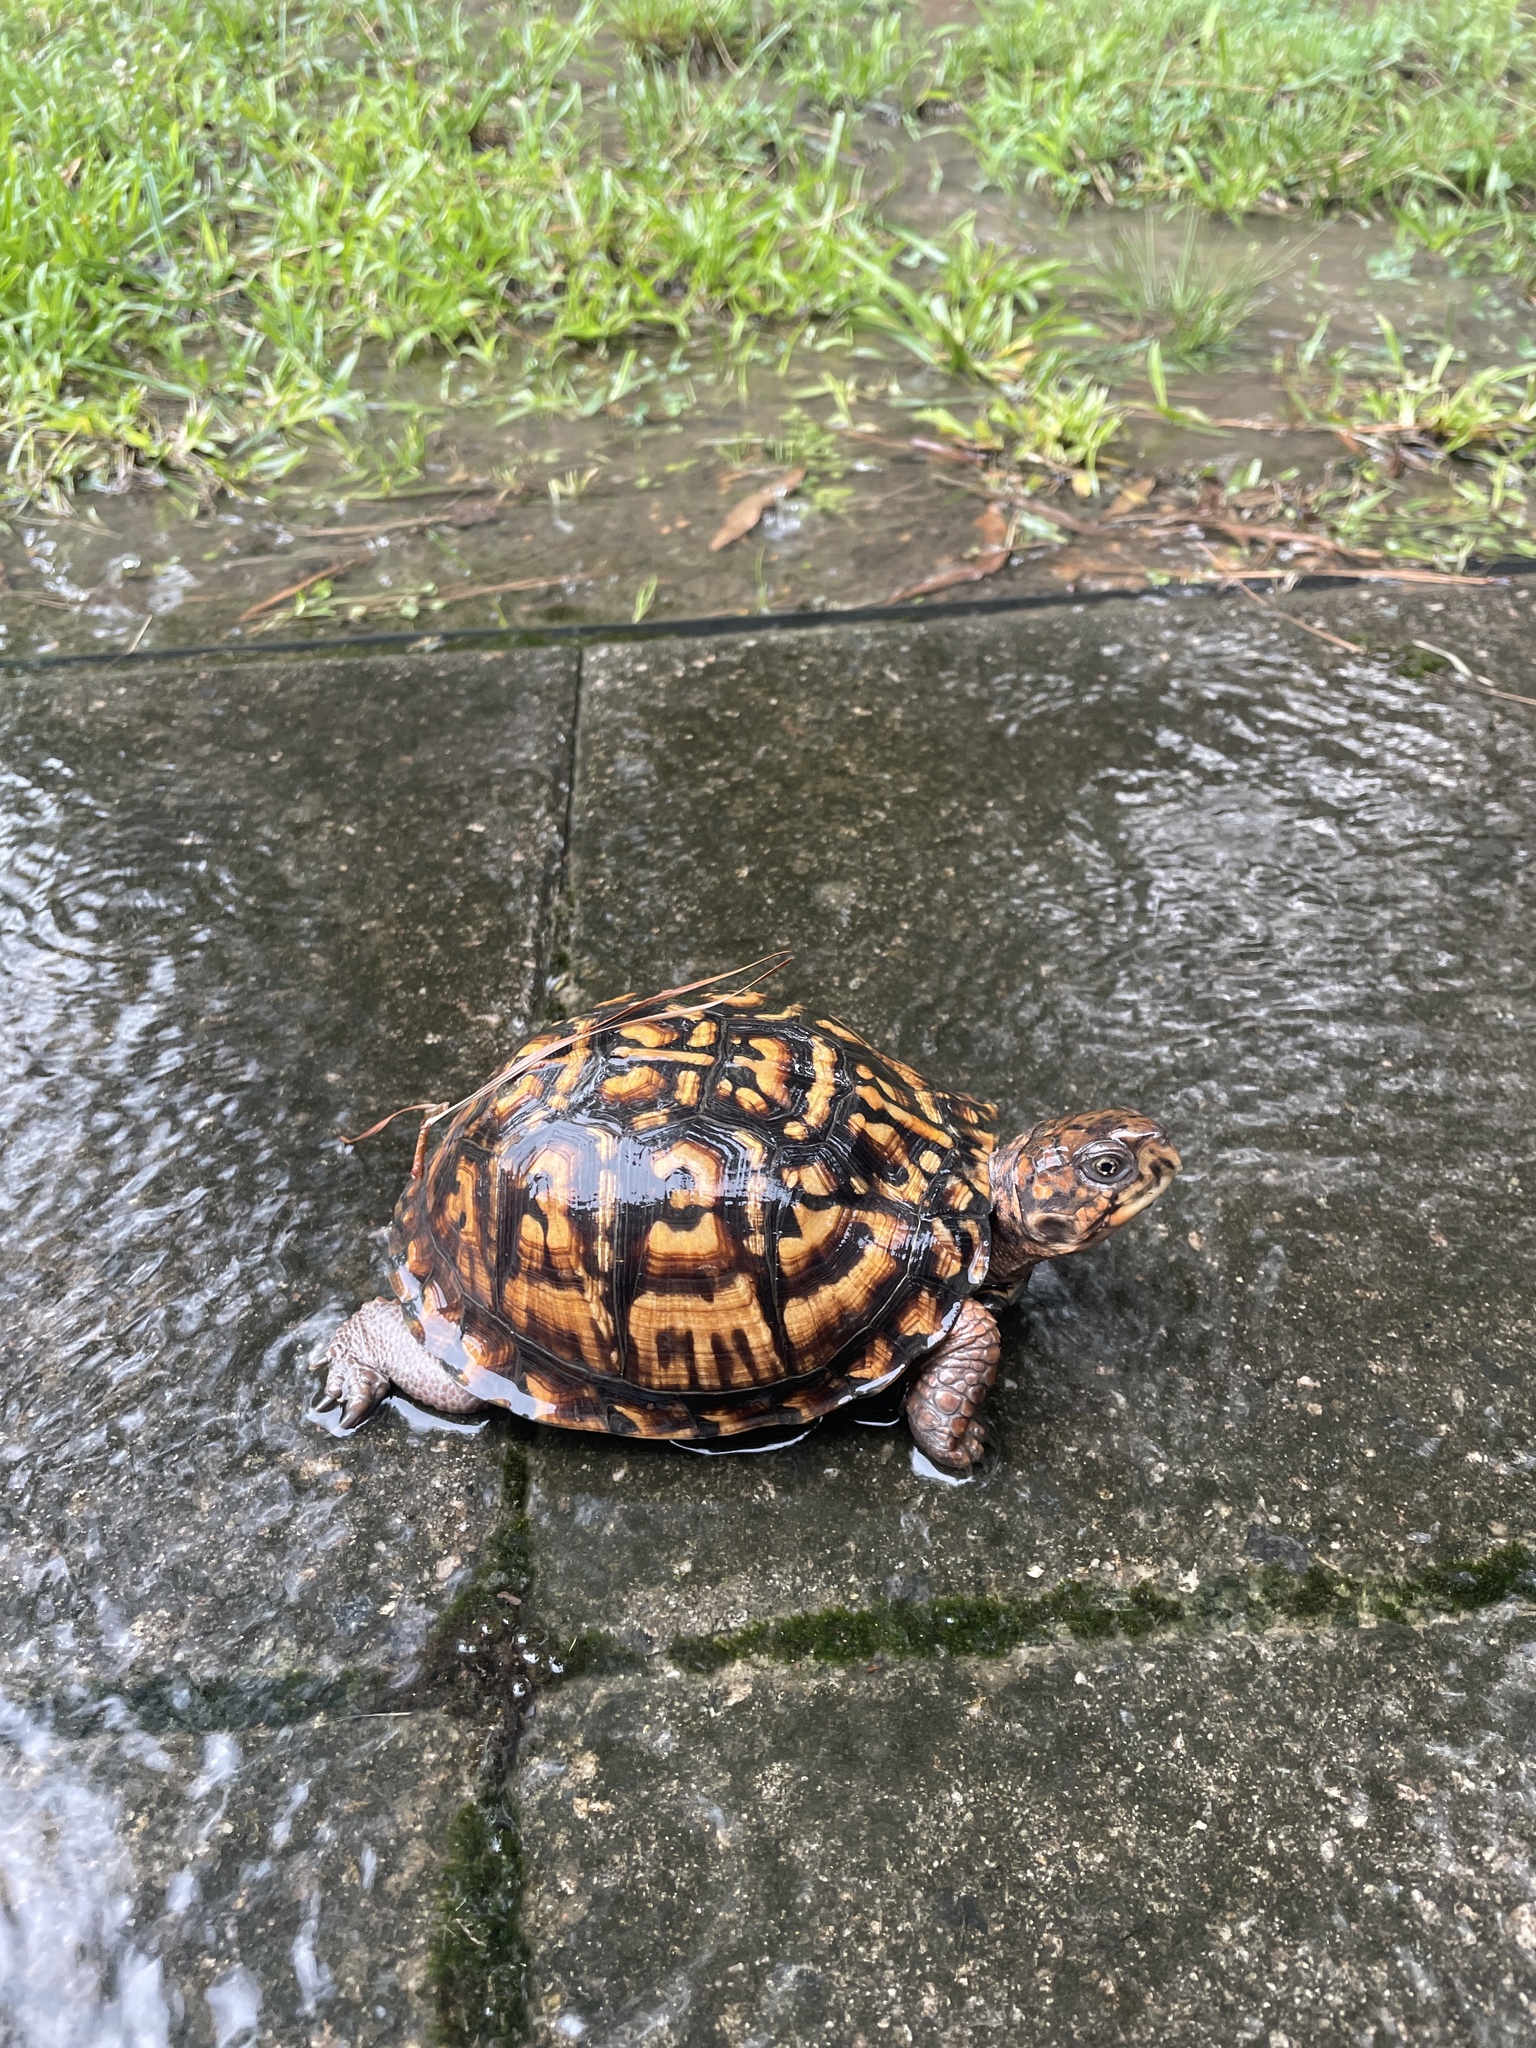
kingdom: Animalia
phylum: Chordata
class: Testudines
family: Emydidae
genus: Terrapene
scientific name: Terrapene carolina
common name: Common box turtle
